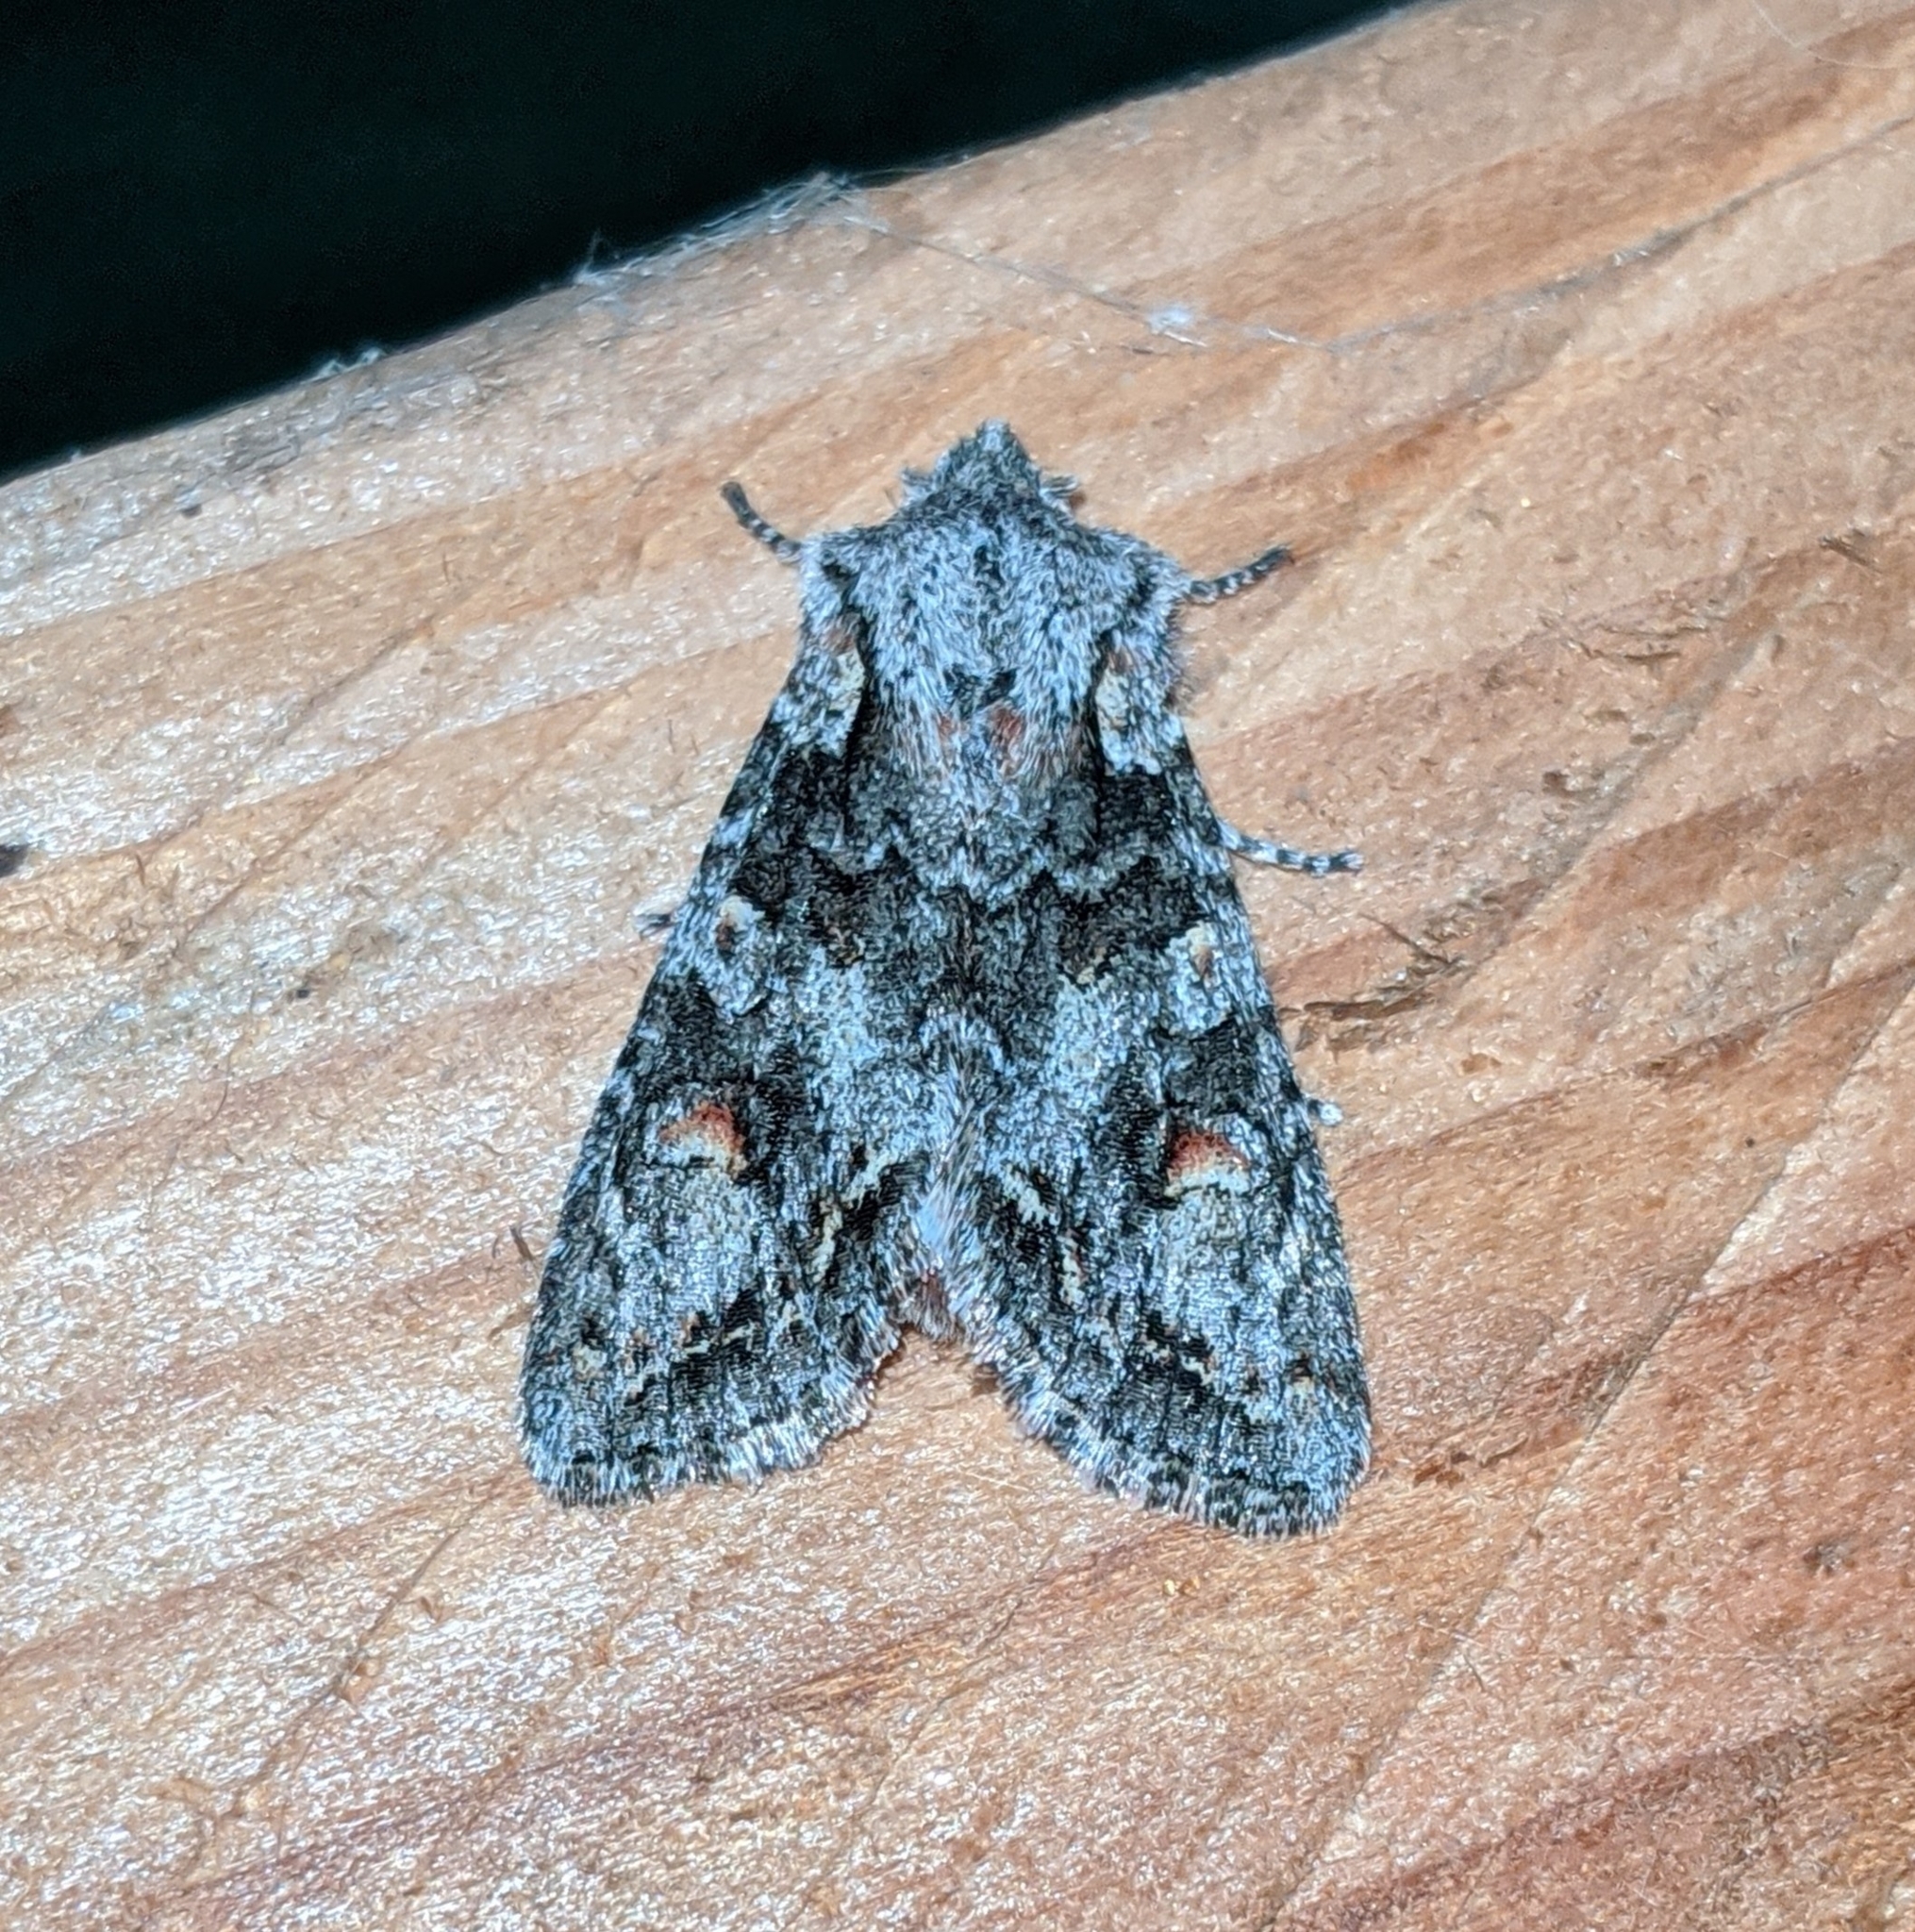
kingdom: Animalia
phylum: Arthropoda
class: Insecta
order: Lepidoptera
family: Noctuidae
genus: Egira
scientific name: Egira hiemalis
